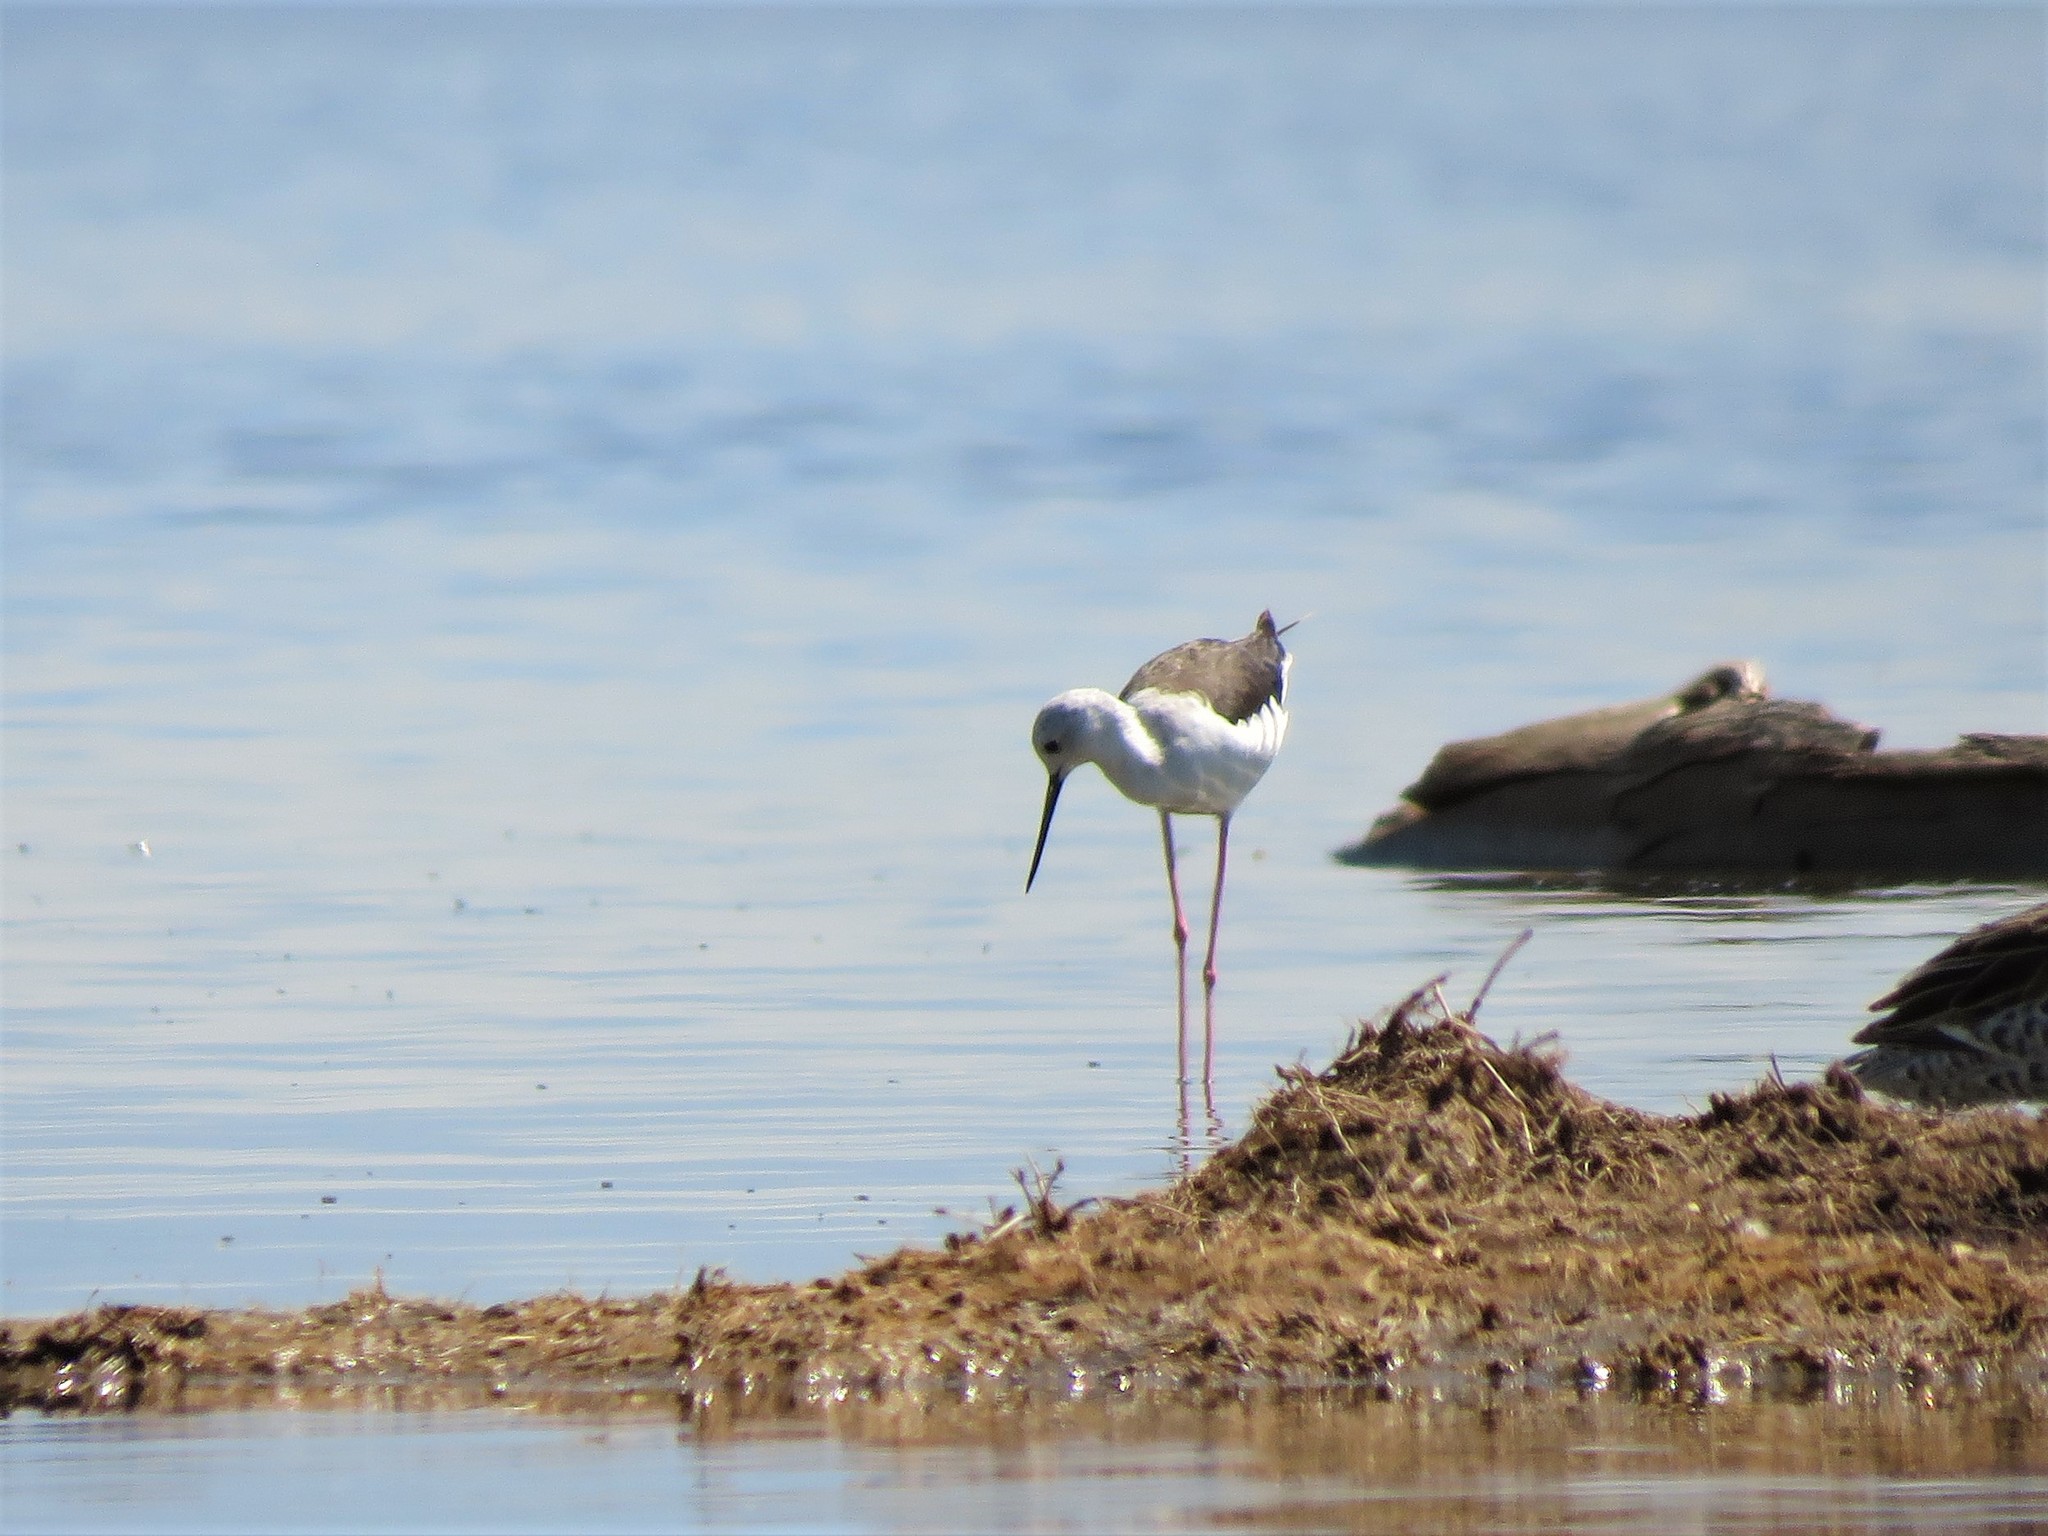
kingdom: Animalia
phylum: Chordata
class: Aves
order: Charadriiformes
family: Recurvirostridae
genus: Himantopus
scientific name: Himantopus himantopus
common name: Black-winged stilt
